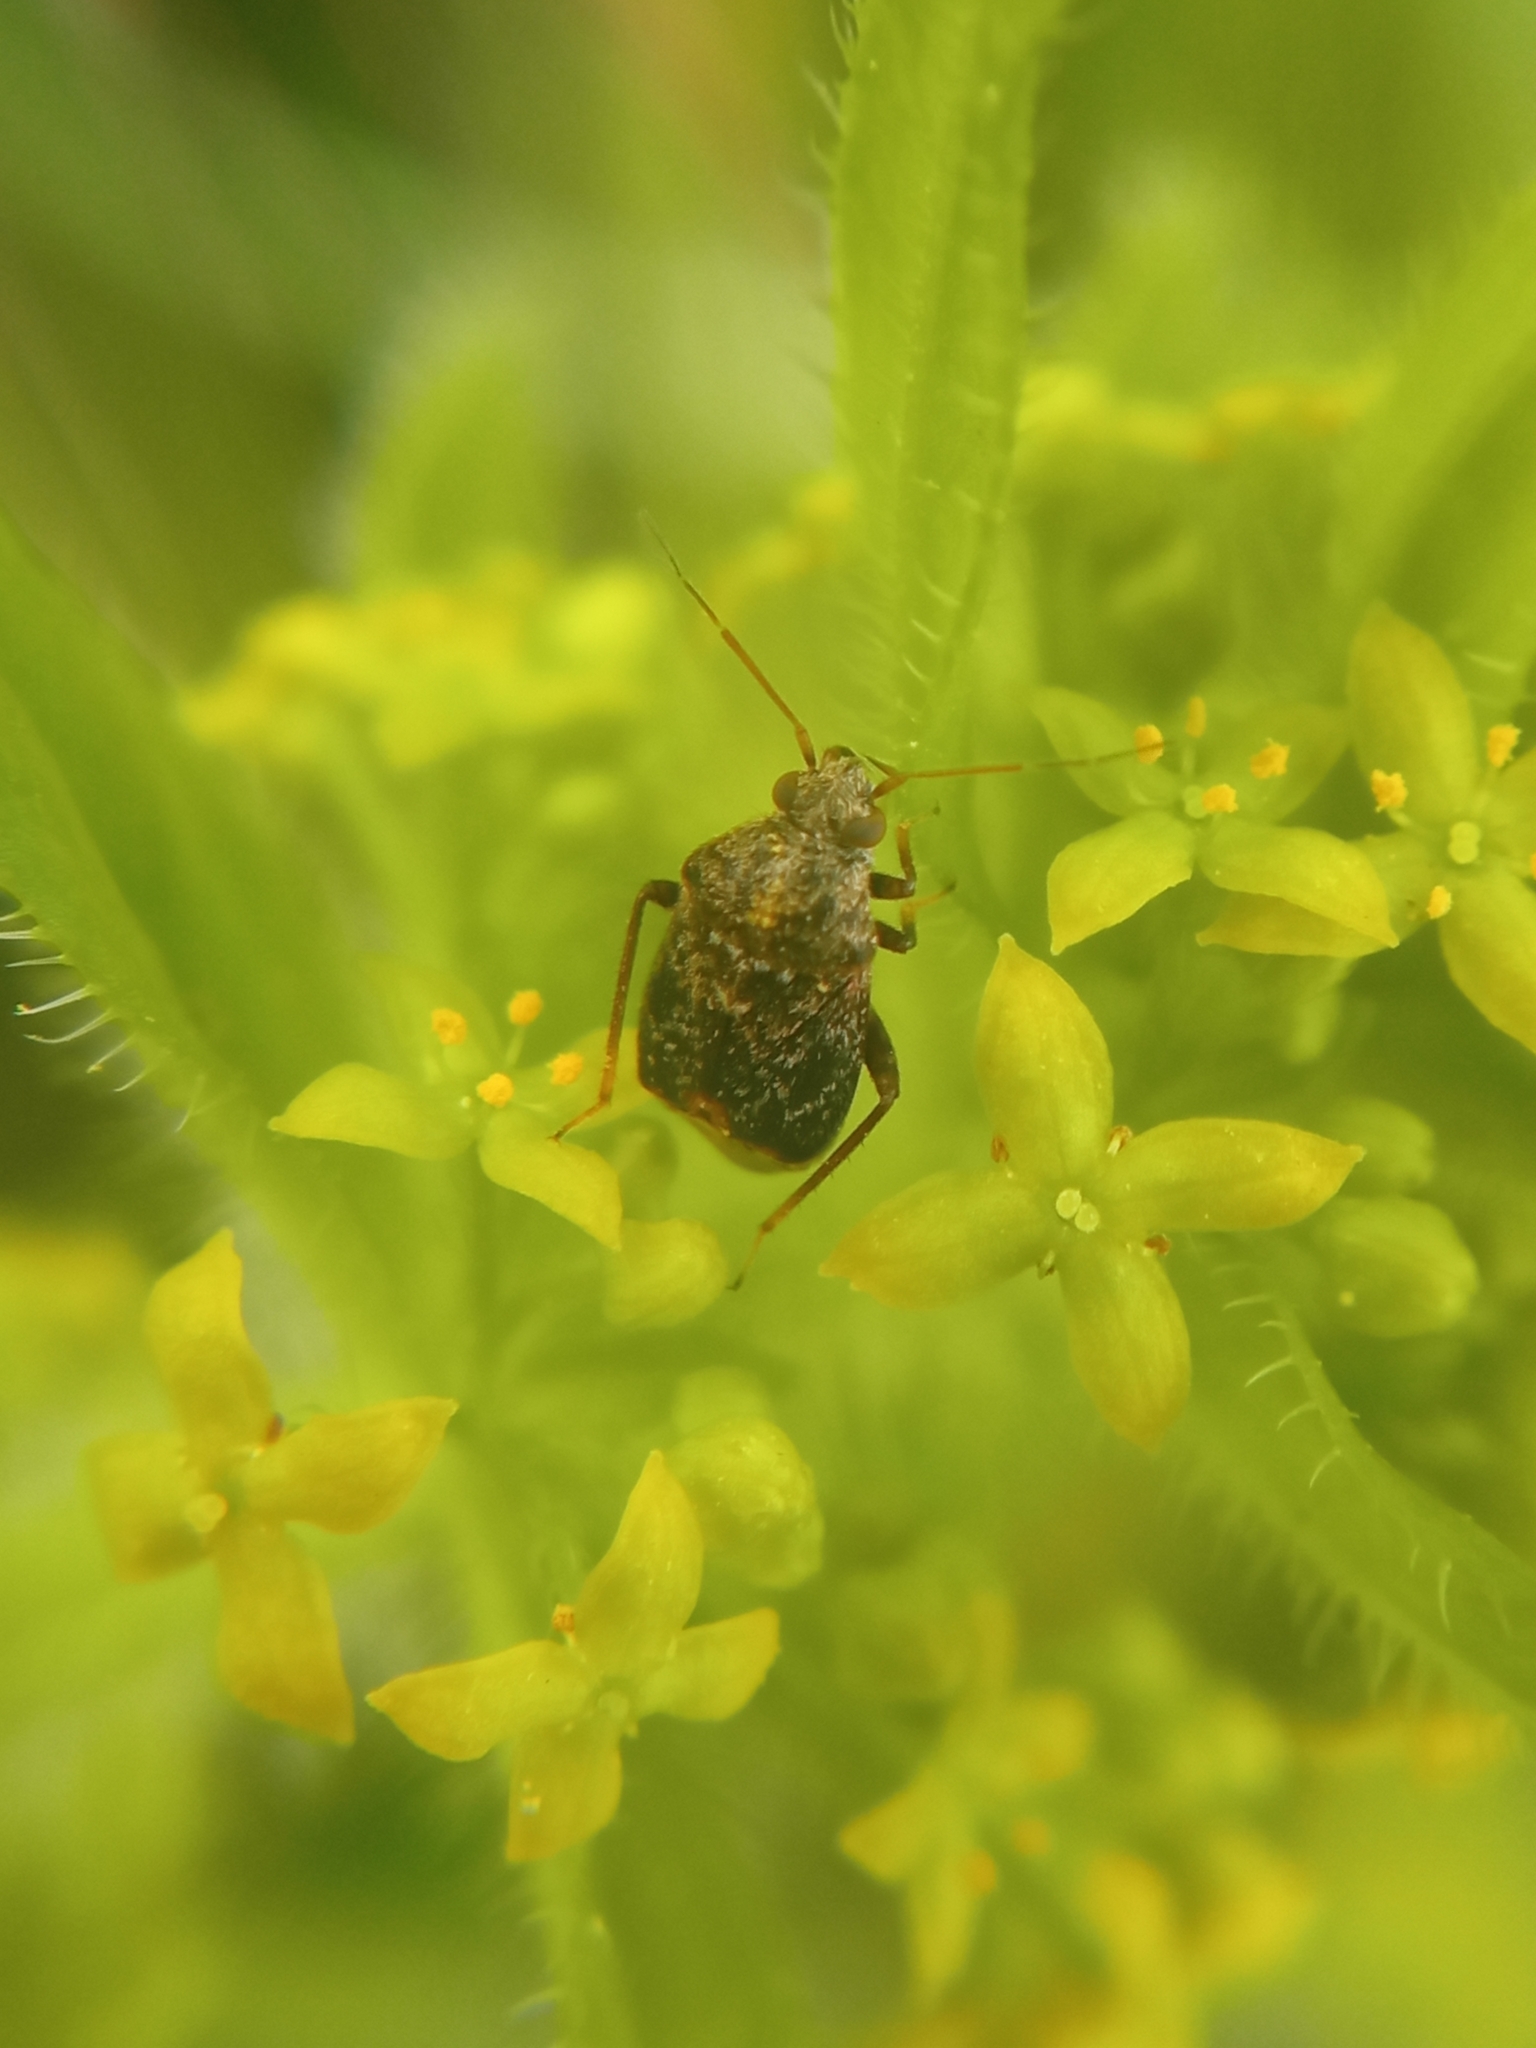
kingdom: Animalia
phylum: Arthropoda
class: Insecta
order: Hemiptera
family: Miridae
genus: Charagochilus
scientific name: Charagochilus gyllenhalii
